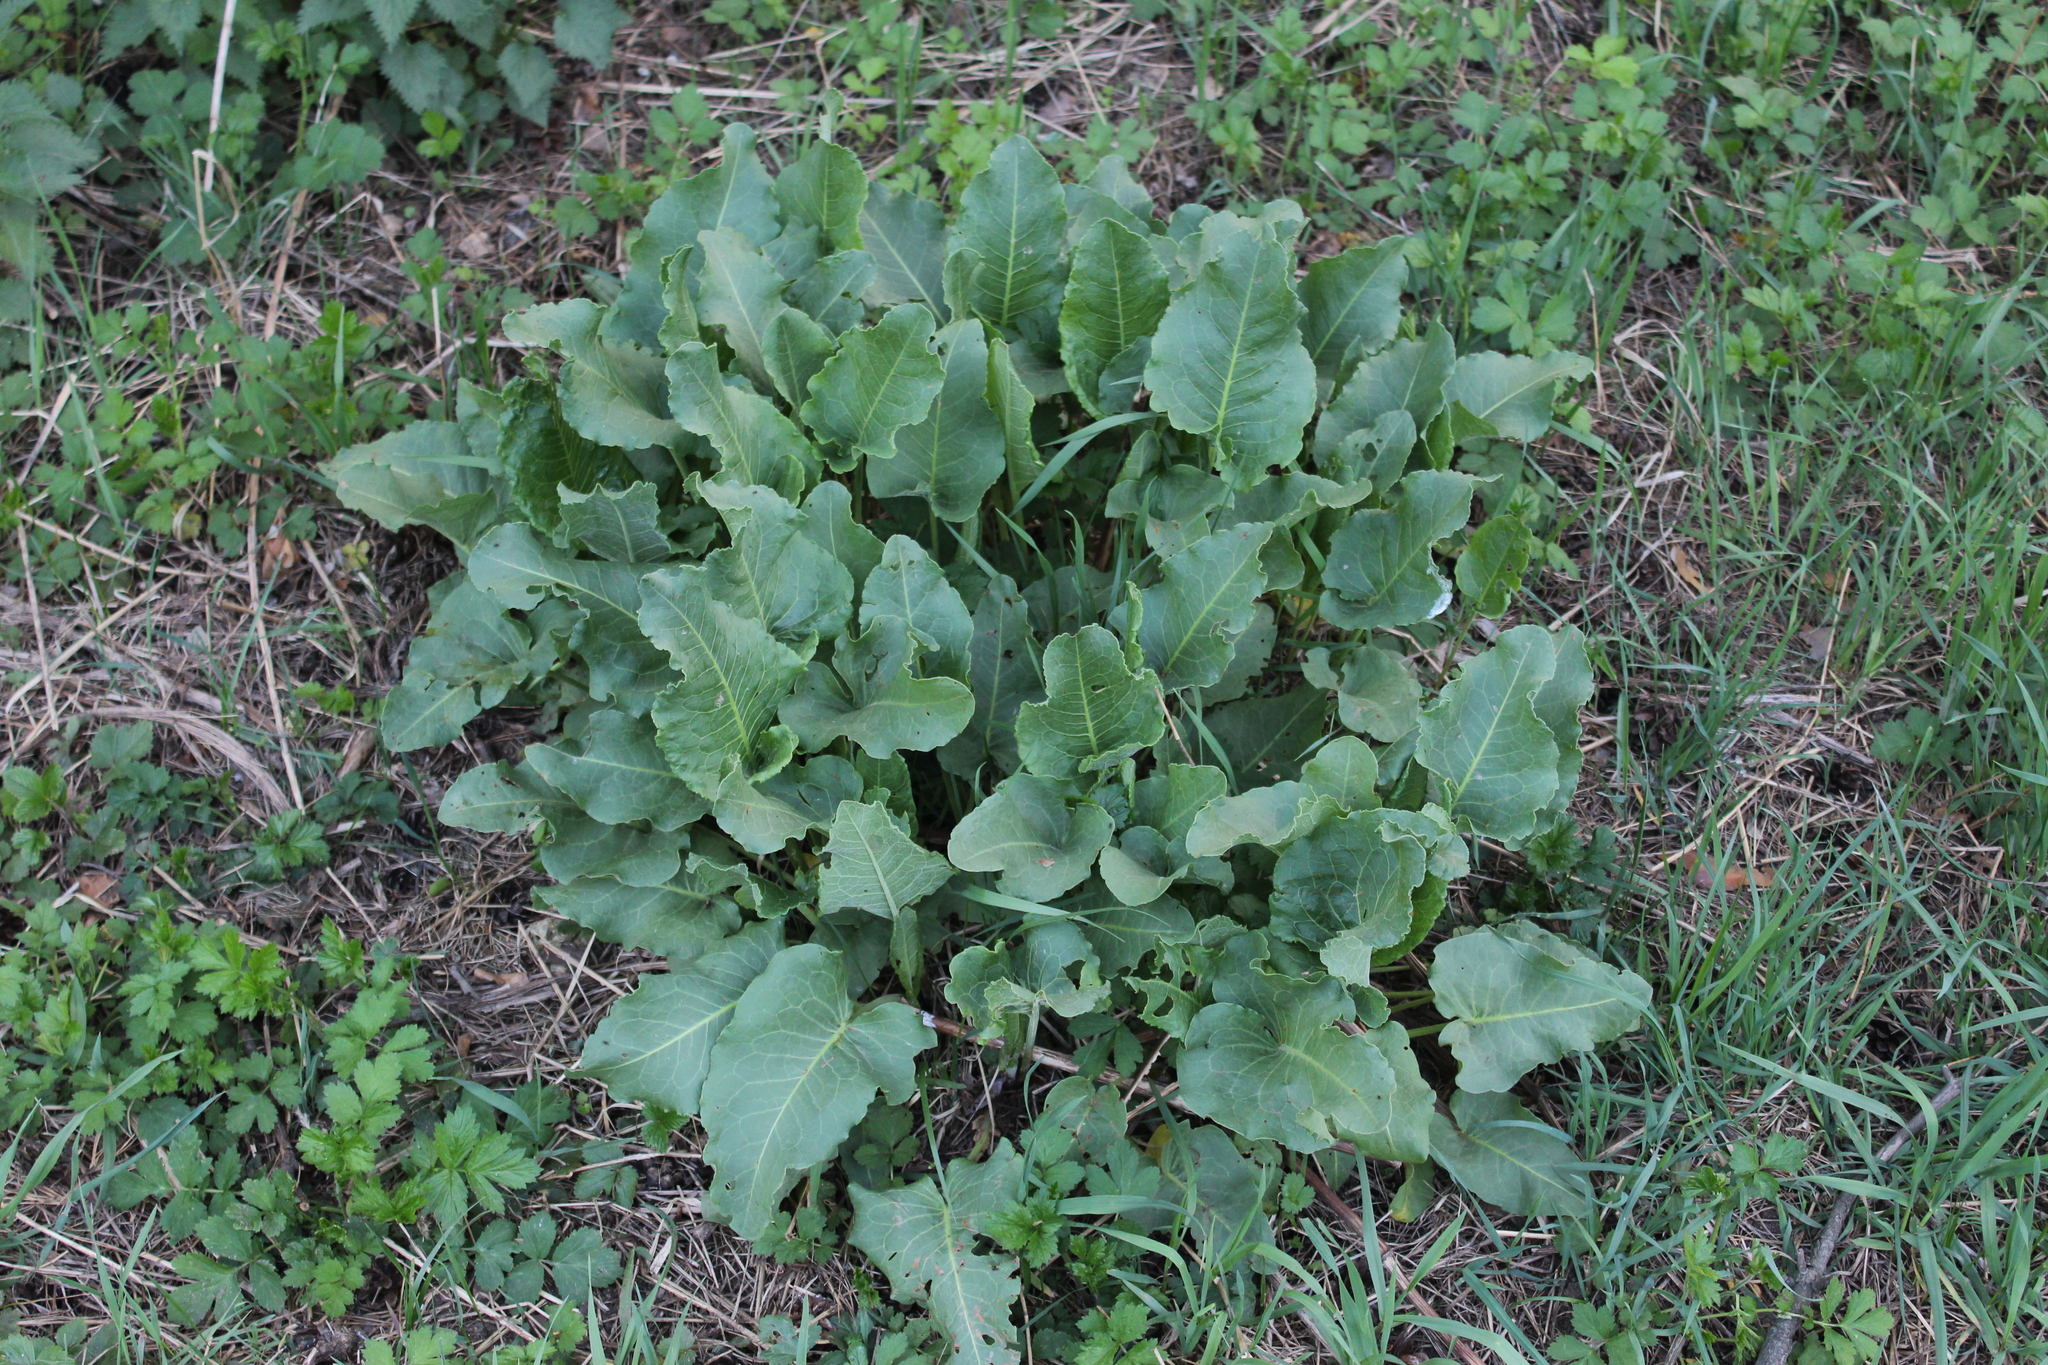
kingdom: Plantae
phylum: Tracheophyta
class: Magnoliopsida
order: Caryophyllales
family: Polygonaceae
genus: Rumex
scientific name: Rumex confertus
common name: Russian dock
